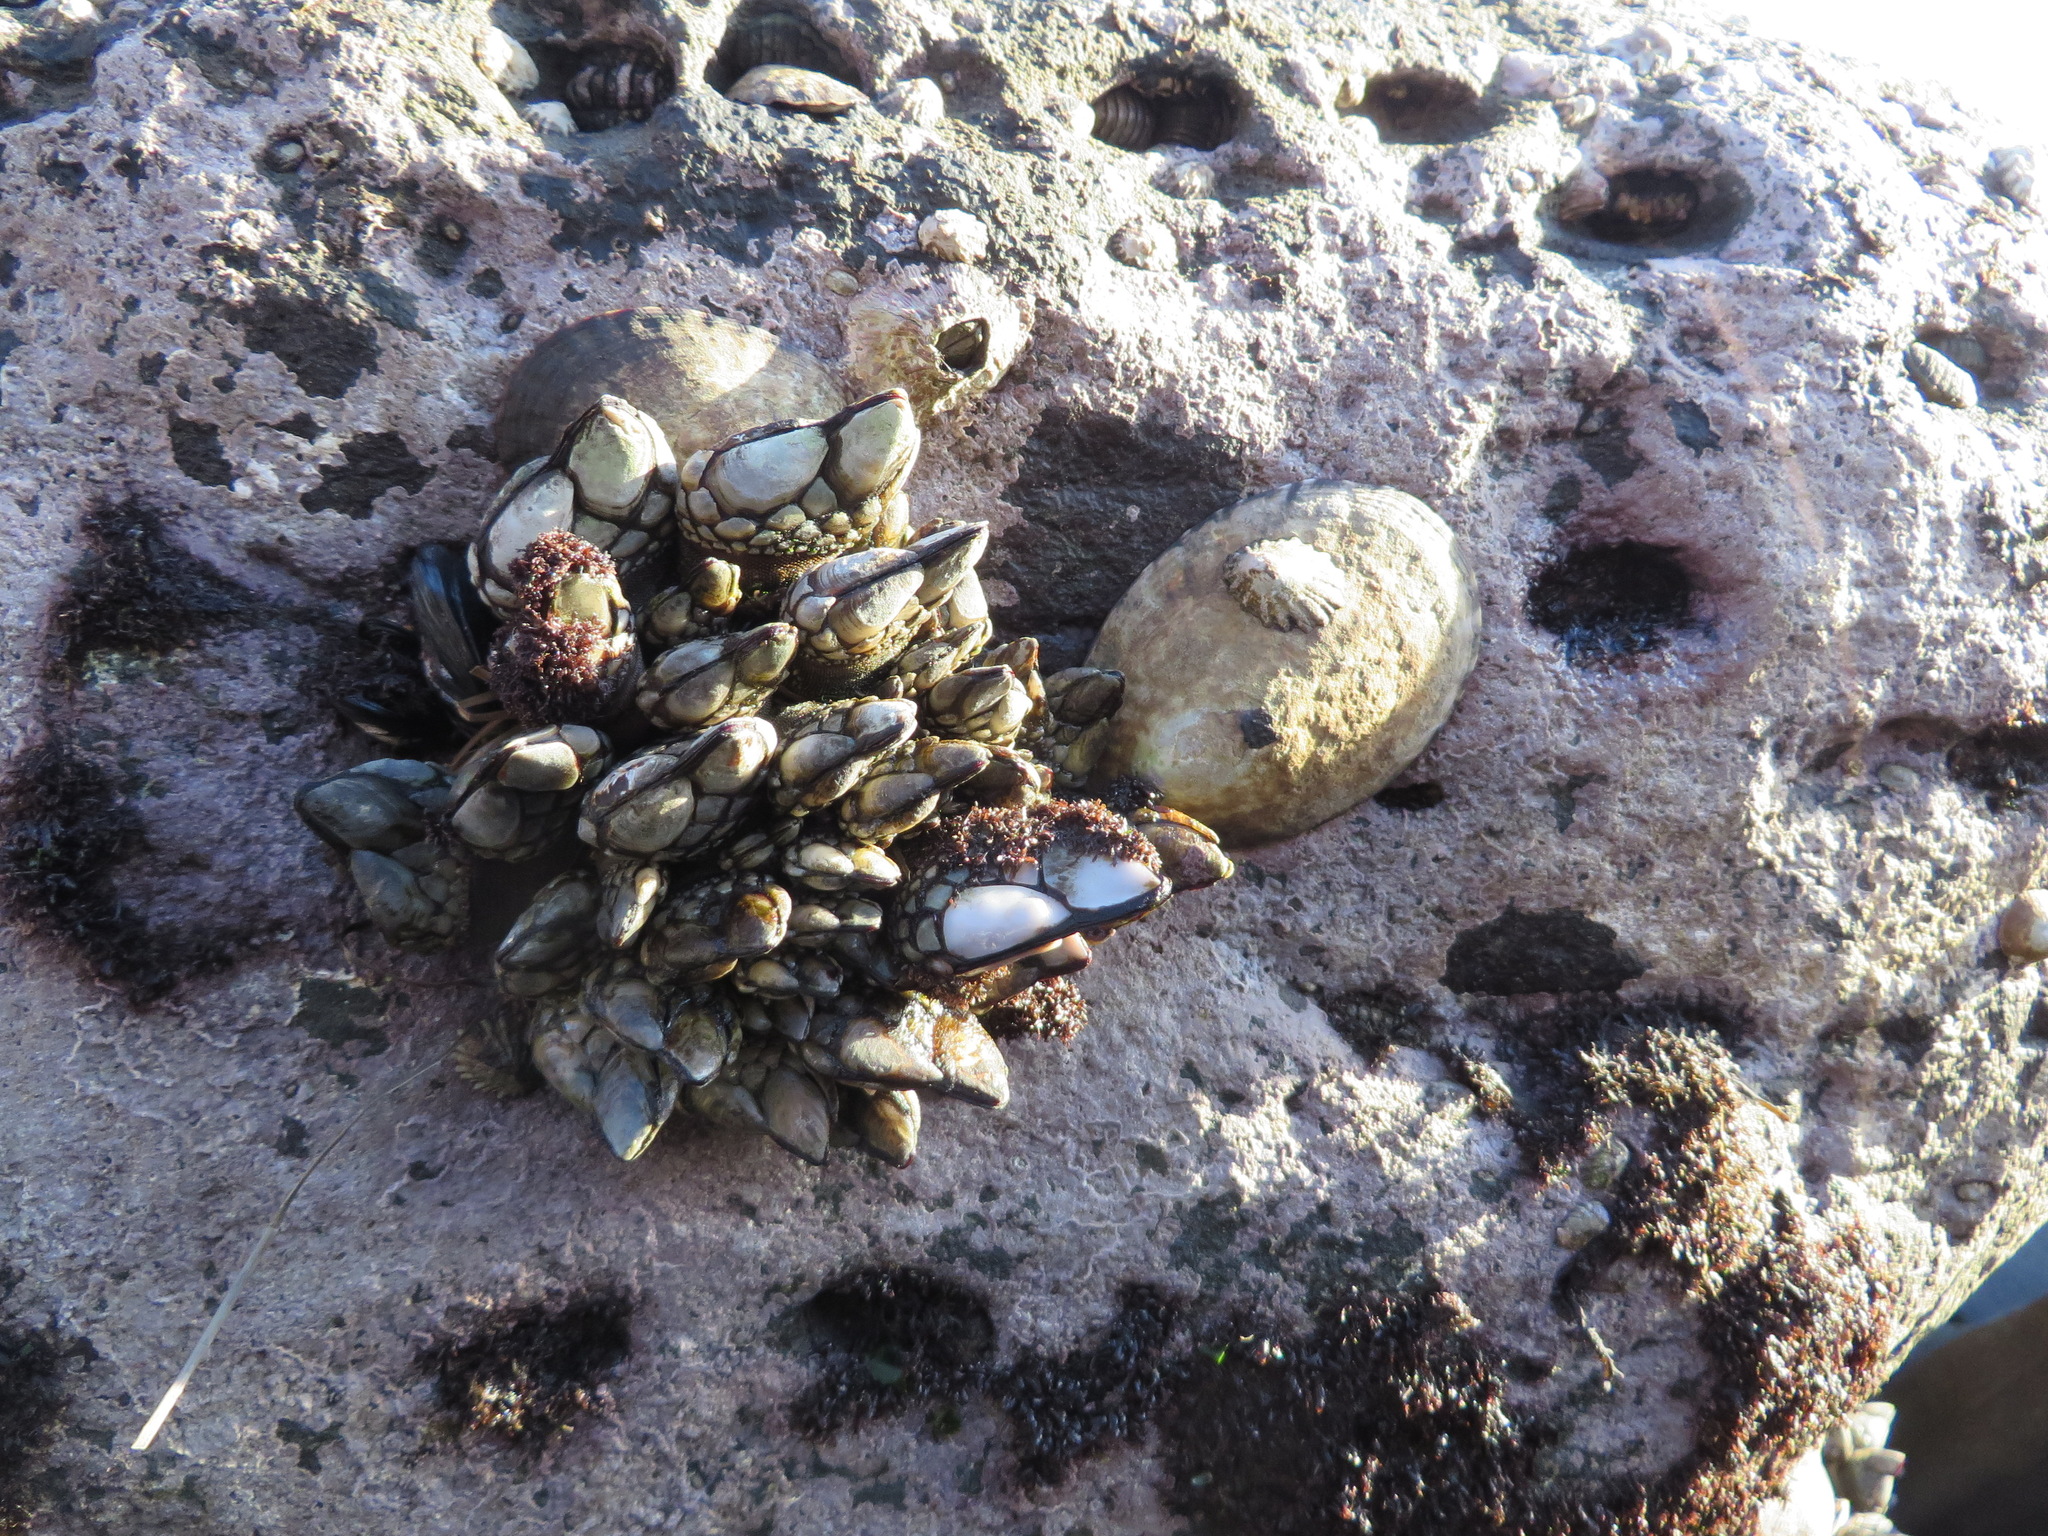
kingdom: Animalia
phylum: Arthropoda
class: Maxillopoda
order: Pedunculata
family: Pollicipedidae
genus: Pollicipes
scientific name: Pollicipes polymerus
